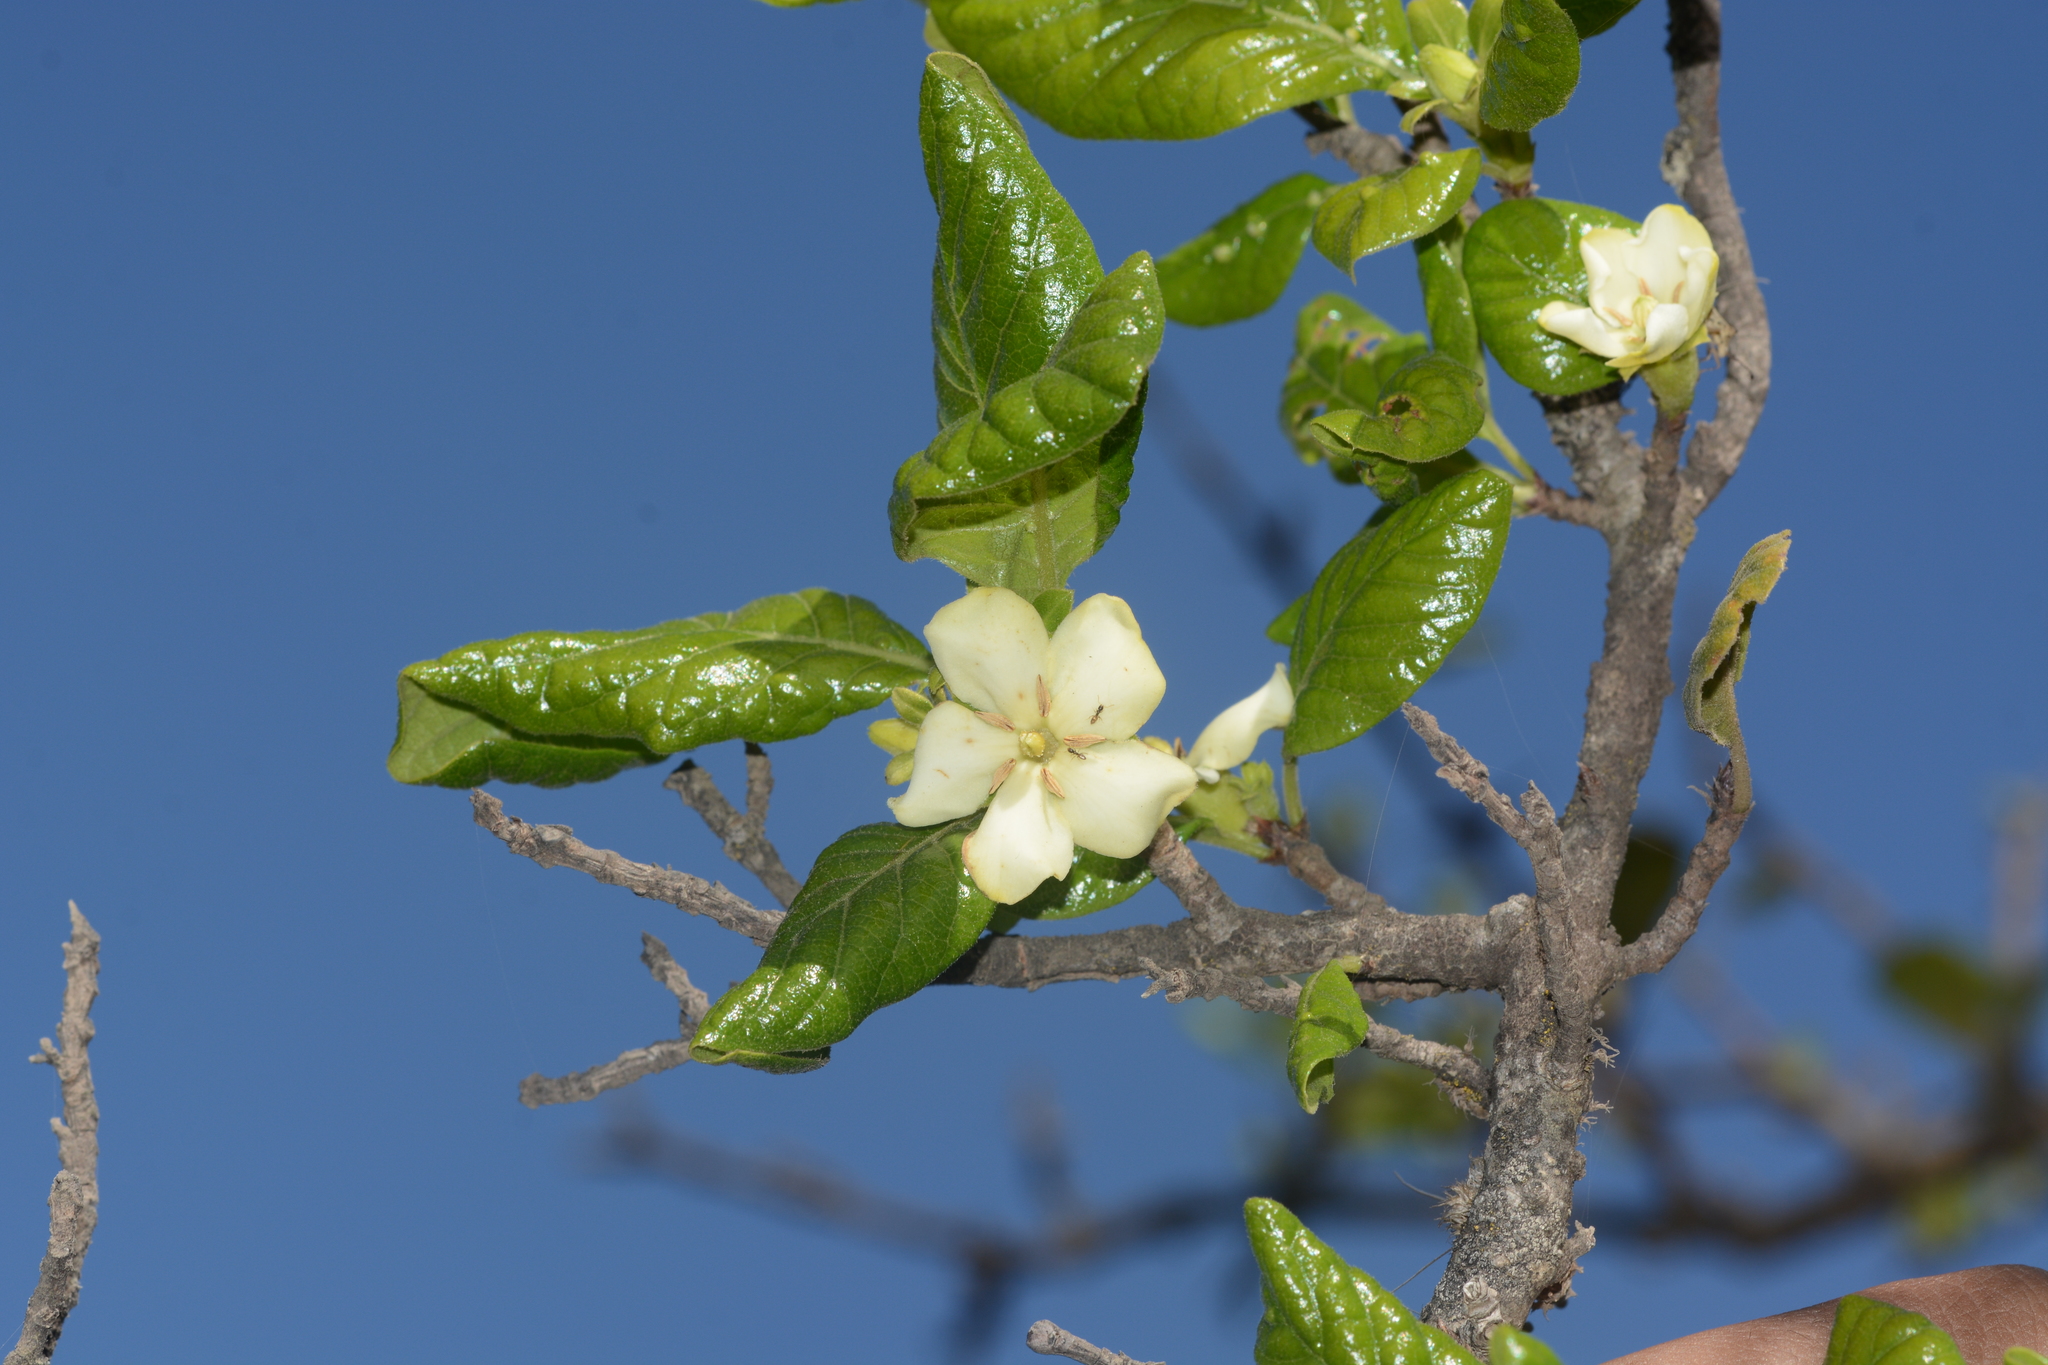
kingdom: Plantae
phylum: Tracheophyta
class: Magnoliopsida
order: Gentianales
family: Rubiaceae
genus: Catunaregam
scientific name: Catunaregam spinosa
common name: Emetic-nut
